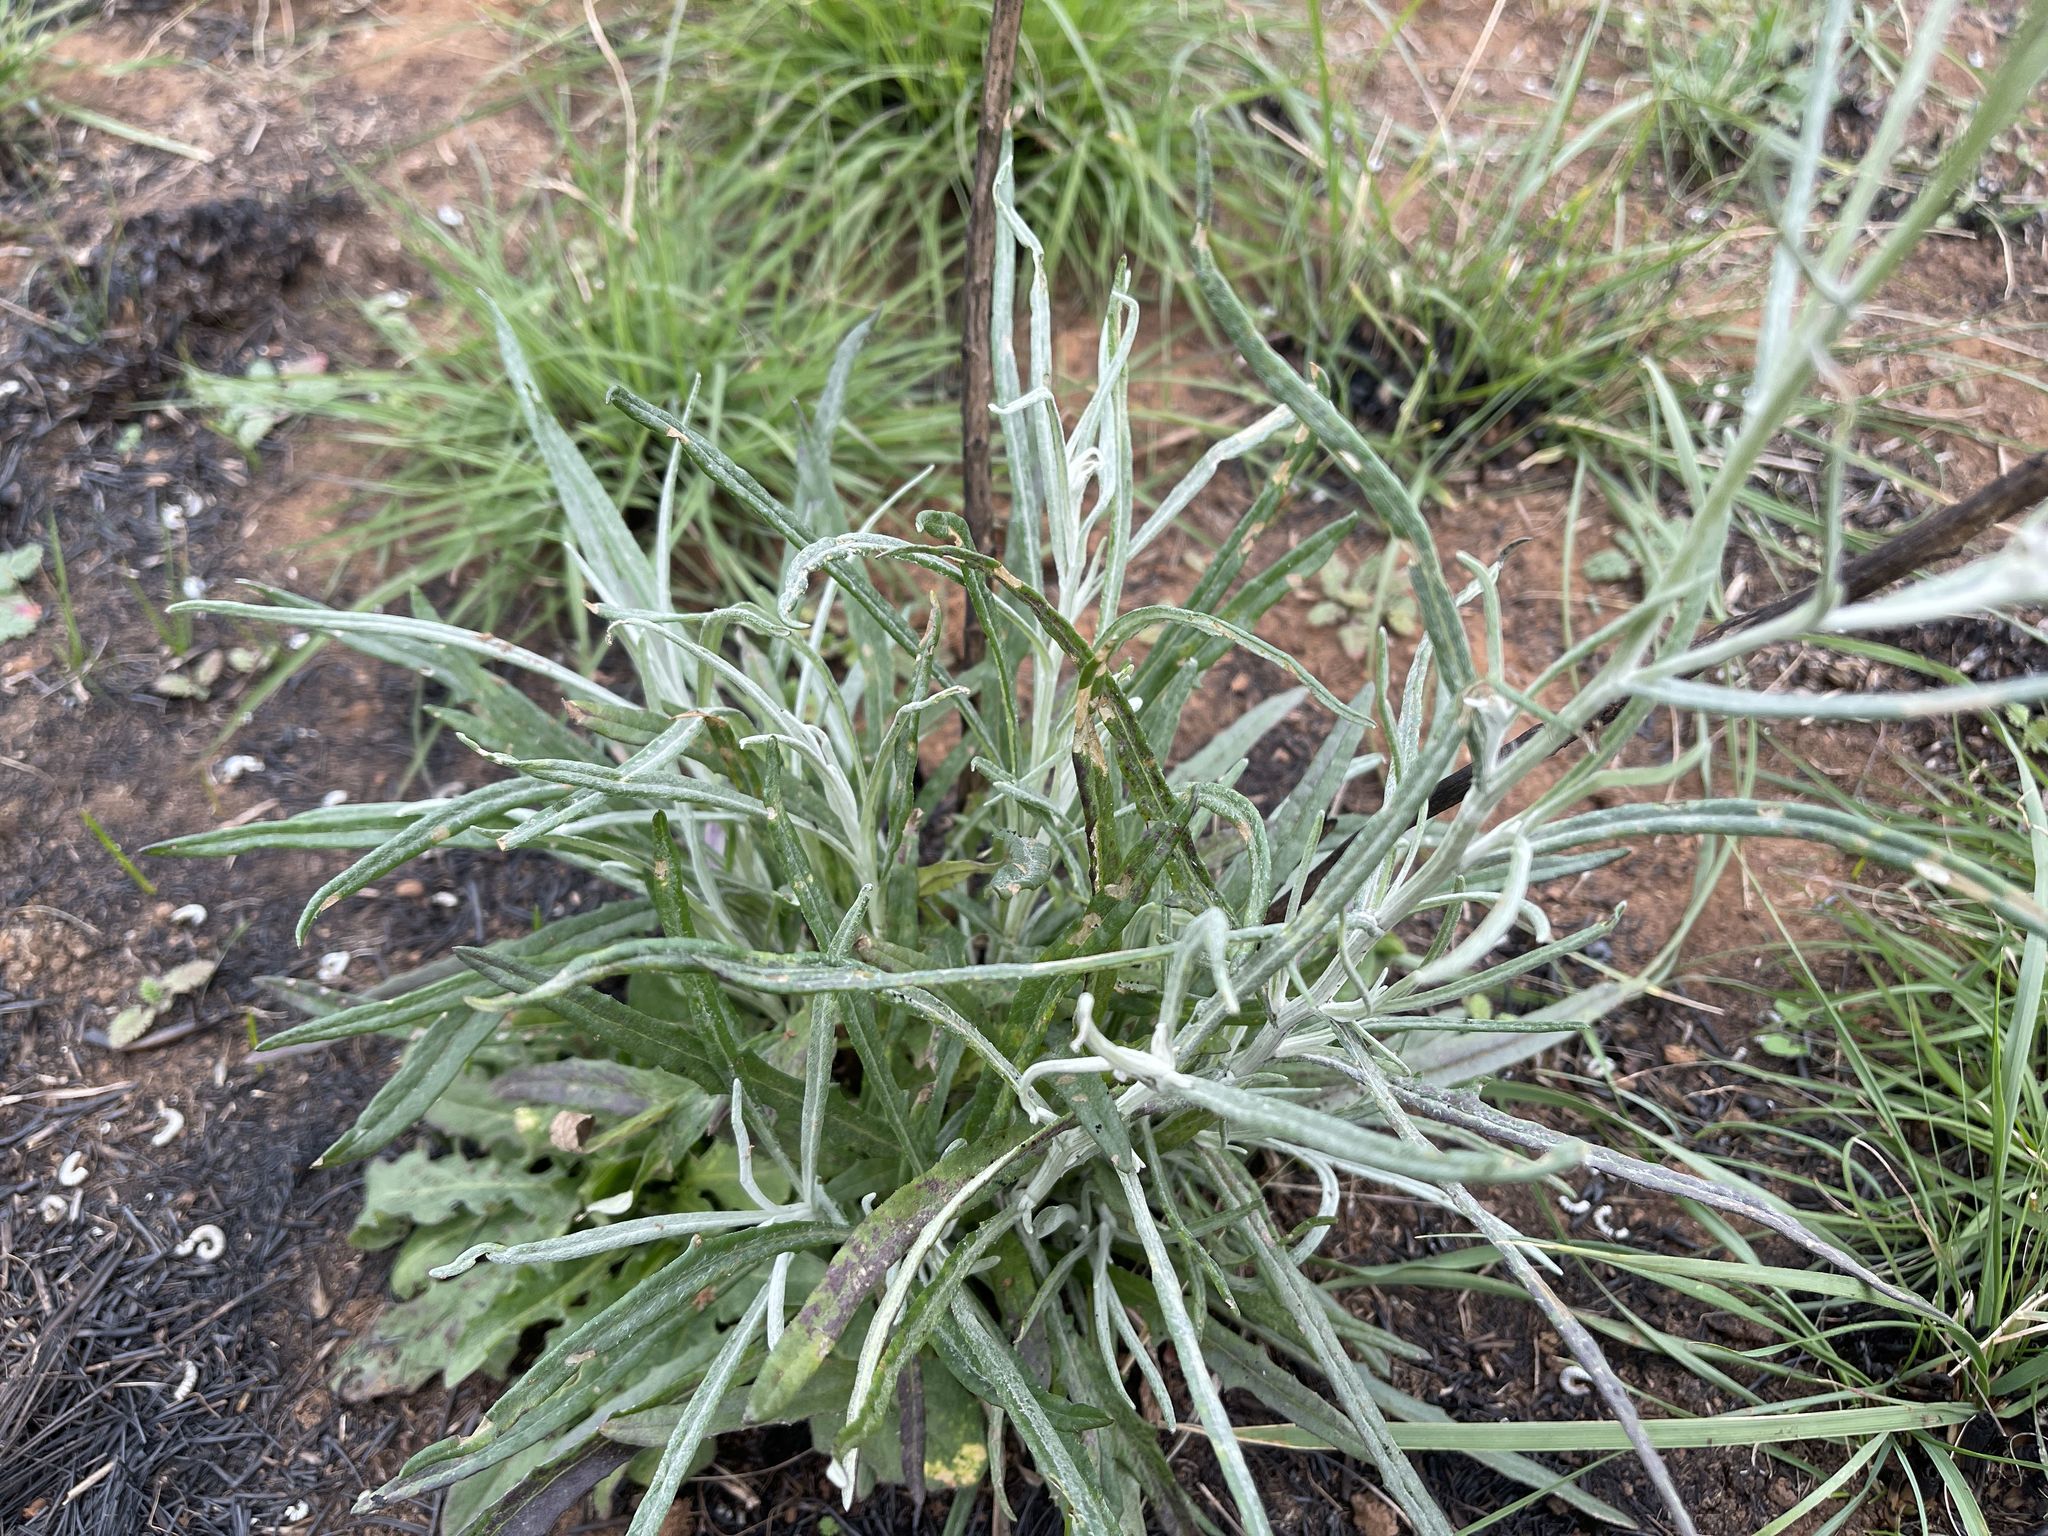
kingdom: Plantae
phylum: Tracheophyta
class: Magnoliopsida
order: Asterales
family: Asteraceae
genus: Senecio
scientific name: Senecio quadridentatus
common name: Cotton fireweed
